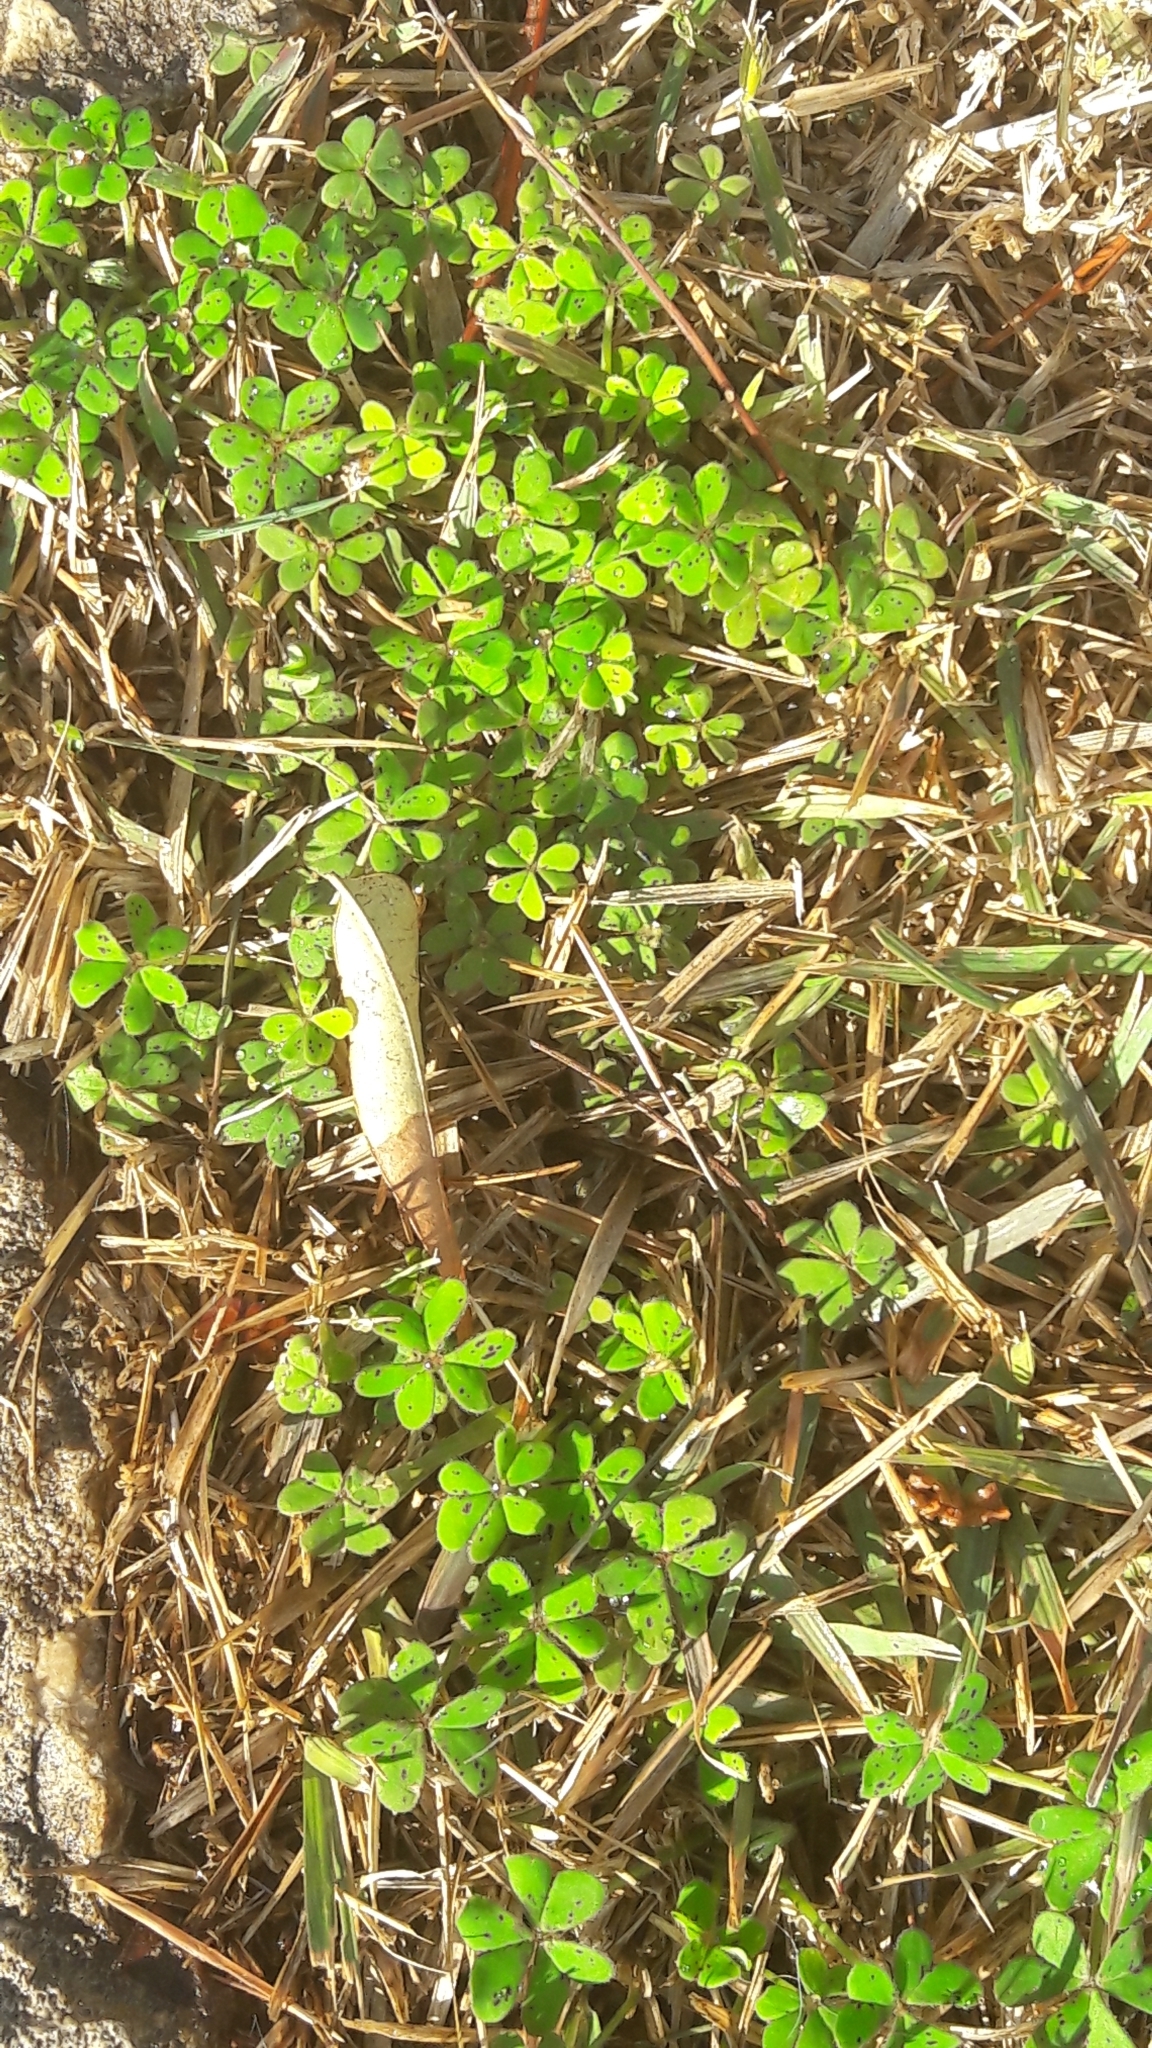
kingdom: Plantae
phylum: Tracheophyta
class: Magnoliopsida
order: Oxalidales
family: Oxalidaceae
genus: Oxalis
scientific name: Oxalis pes-caprae
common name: Bermuda-buttercup
